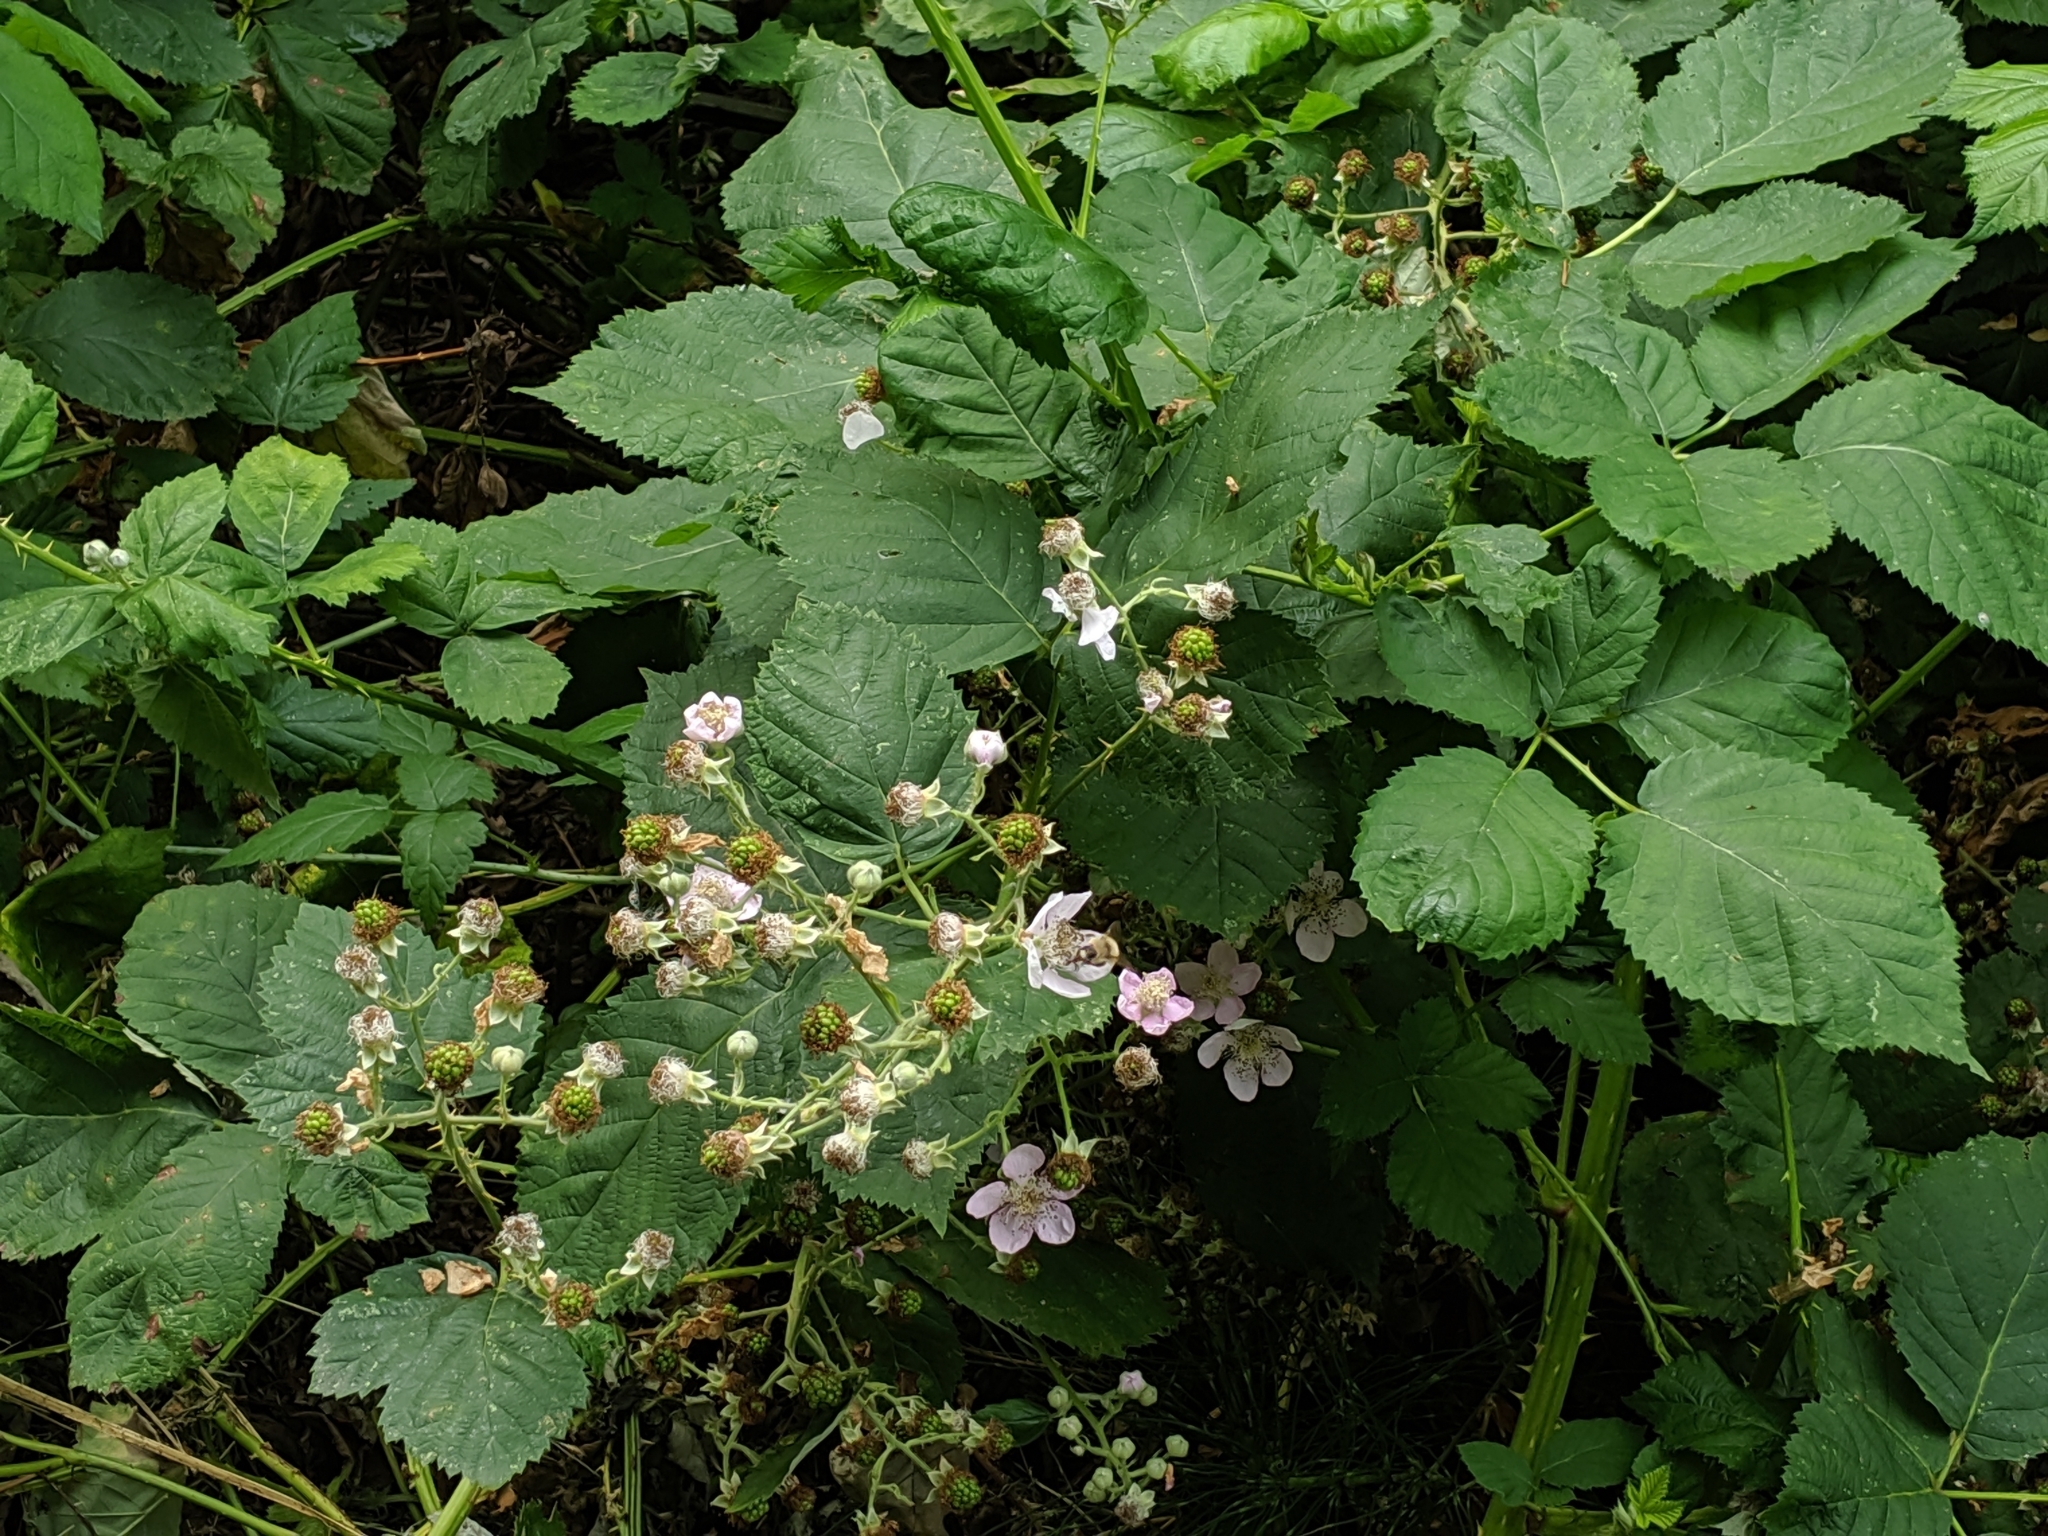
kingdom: Plantae
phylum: Tracheophyta
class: Magnoliopsida
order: Rosales
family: Rosaceae
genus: Rubus
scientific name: Rubus bifrons
